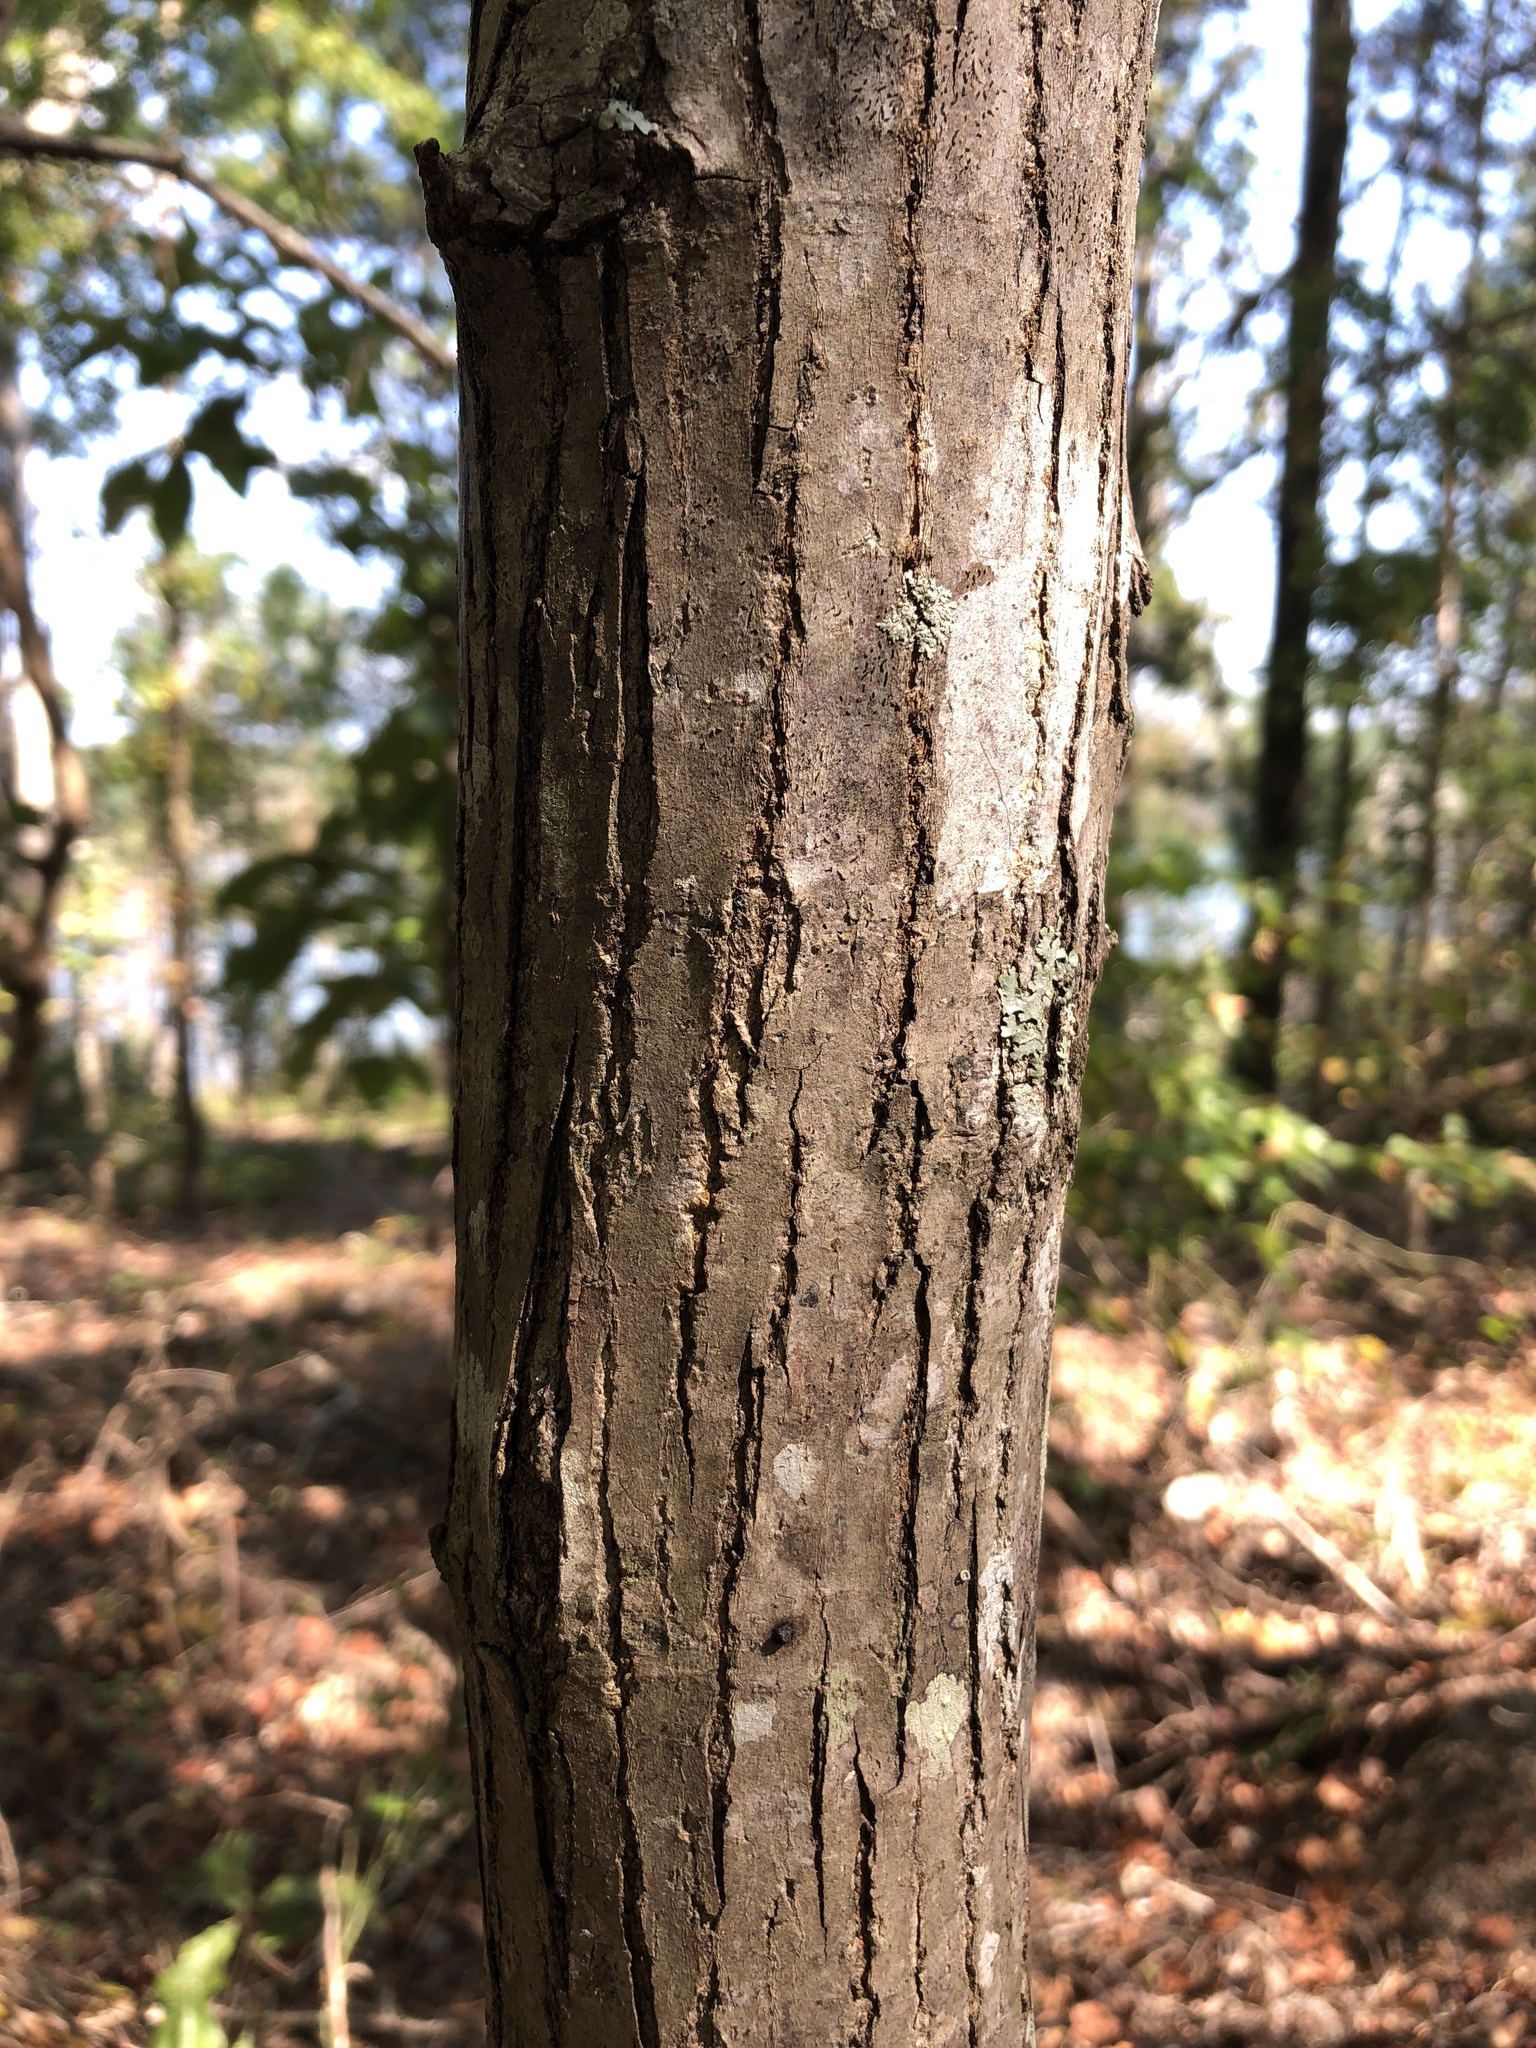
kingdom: Plantae
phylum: Tracheophyta
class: Magnoliopsida
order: Rosales
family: Moraceae
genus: Morus
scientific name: Morus rubra
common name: Red mulberry
